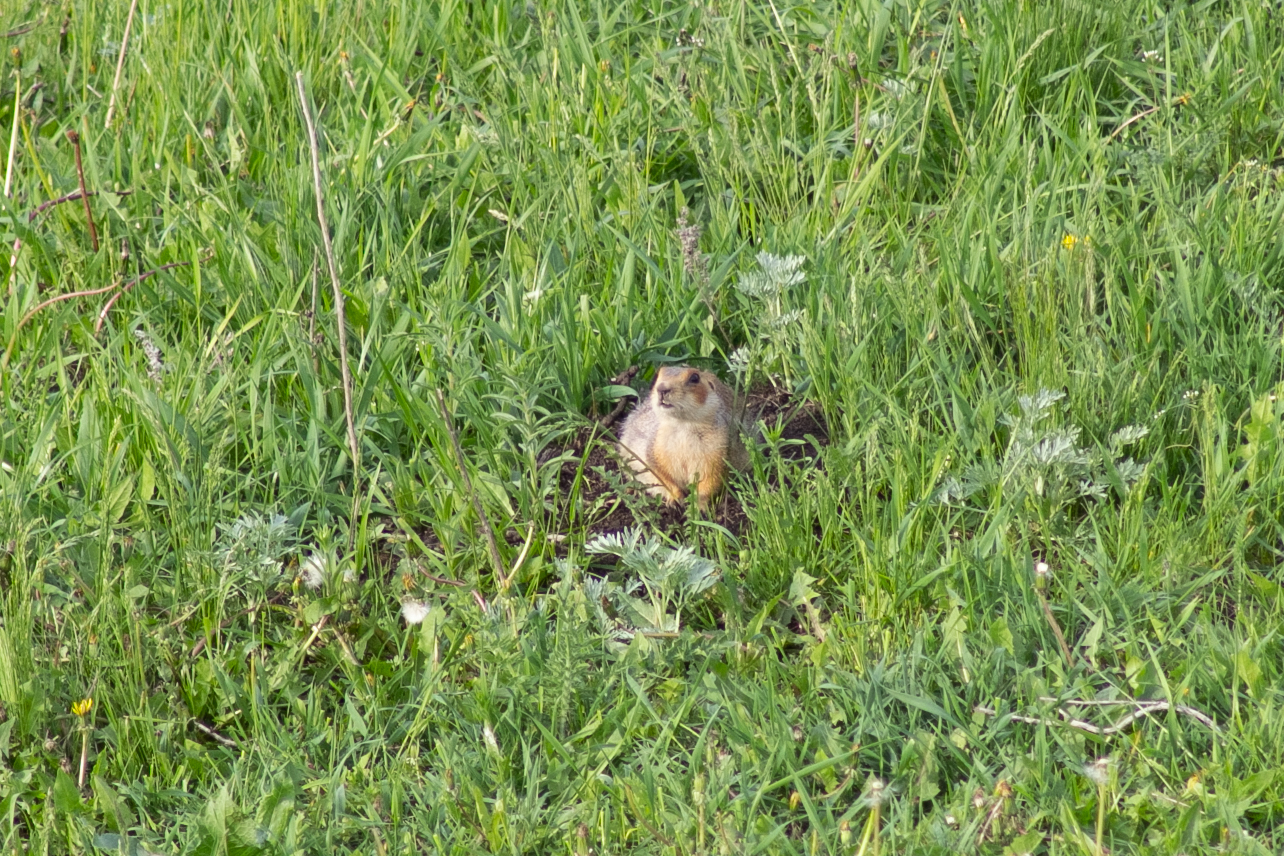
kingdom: Animalia
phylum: Chordata
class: Mammalia
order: Rodentia
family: Sciuridae
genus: Spermophilus
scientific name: Spermophilus major
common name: Russet ground squirrel
